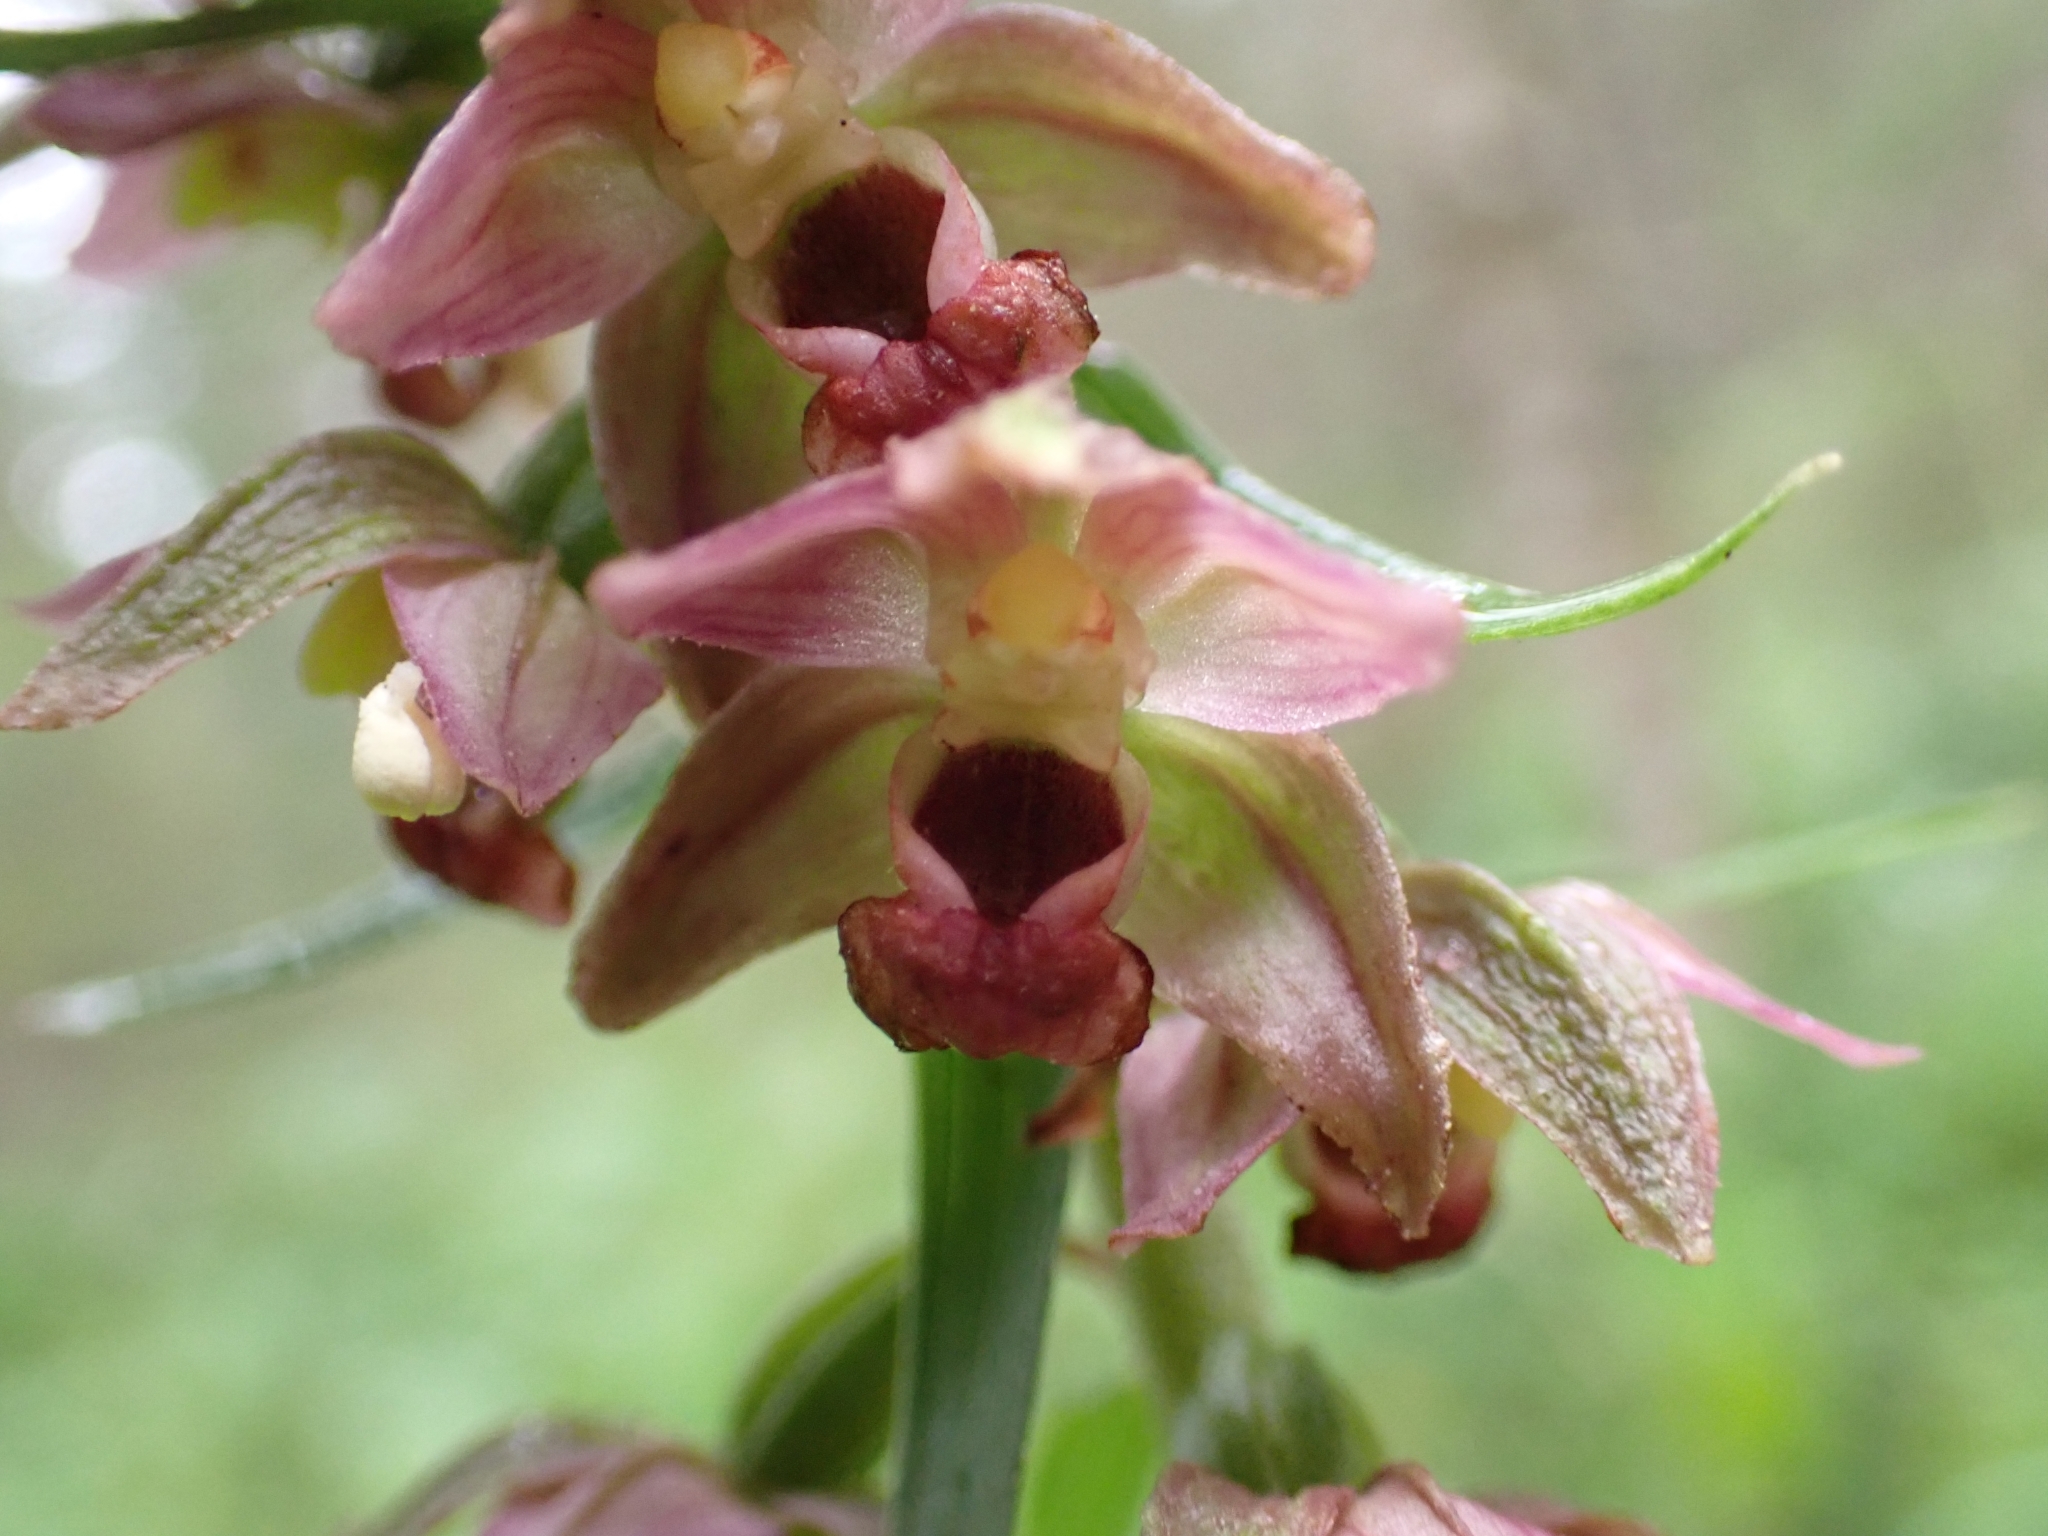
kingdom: Plantae
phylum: Tracheophyta
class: Liliopsida
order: Asparagales
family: Orchidaceae
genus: Epipactis
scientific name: Epipactis helleborine
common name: Broad-leaved helleborine
